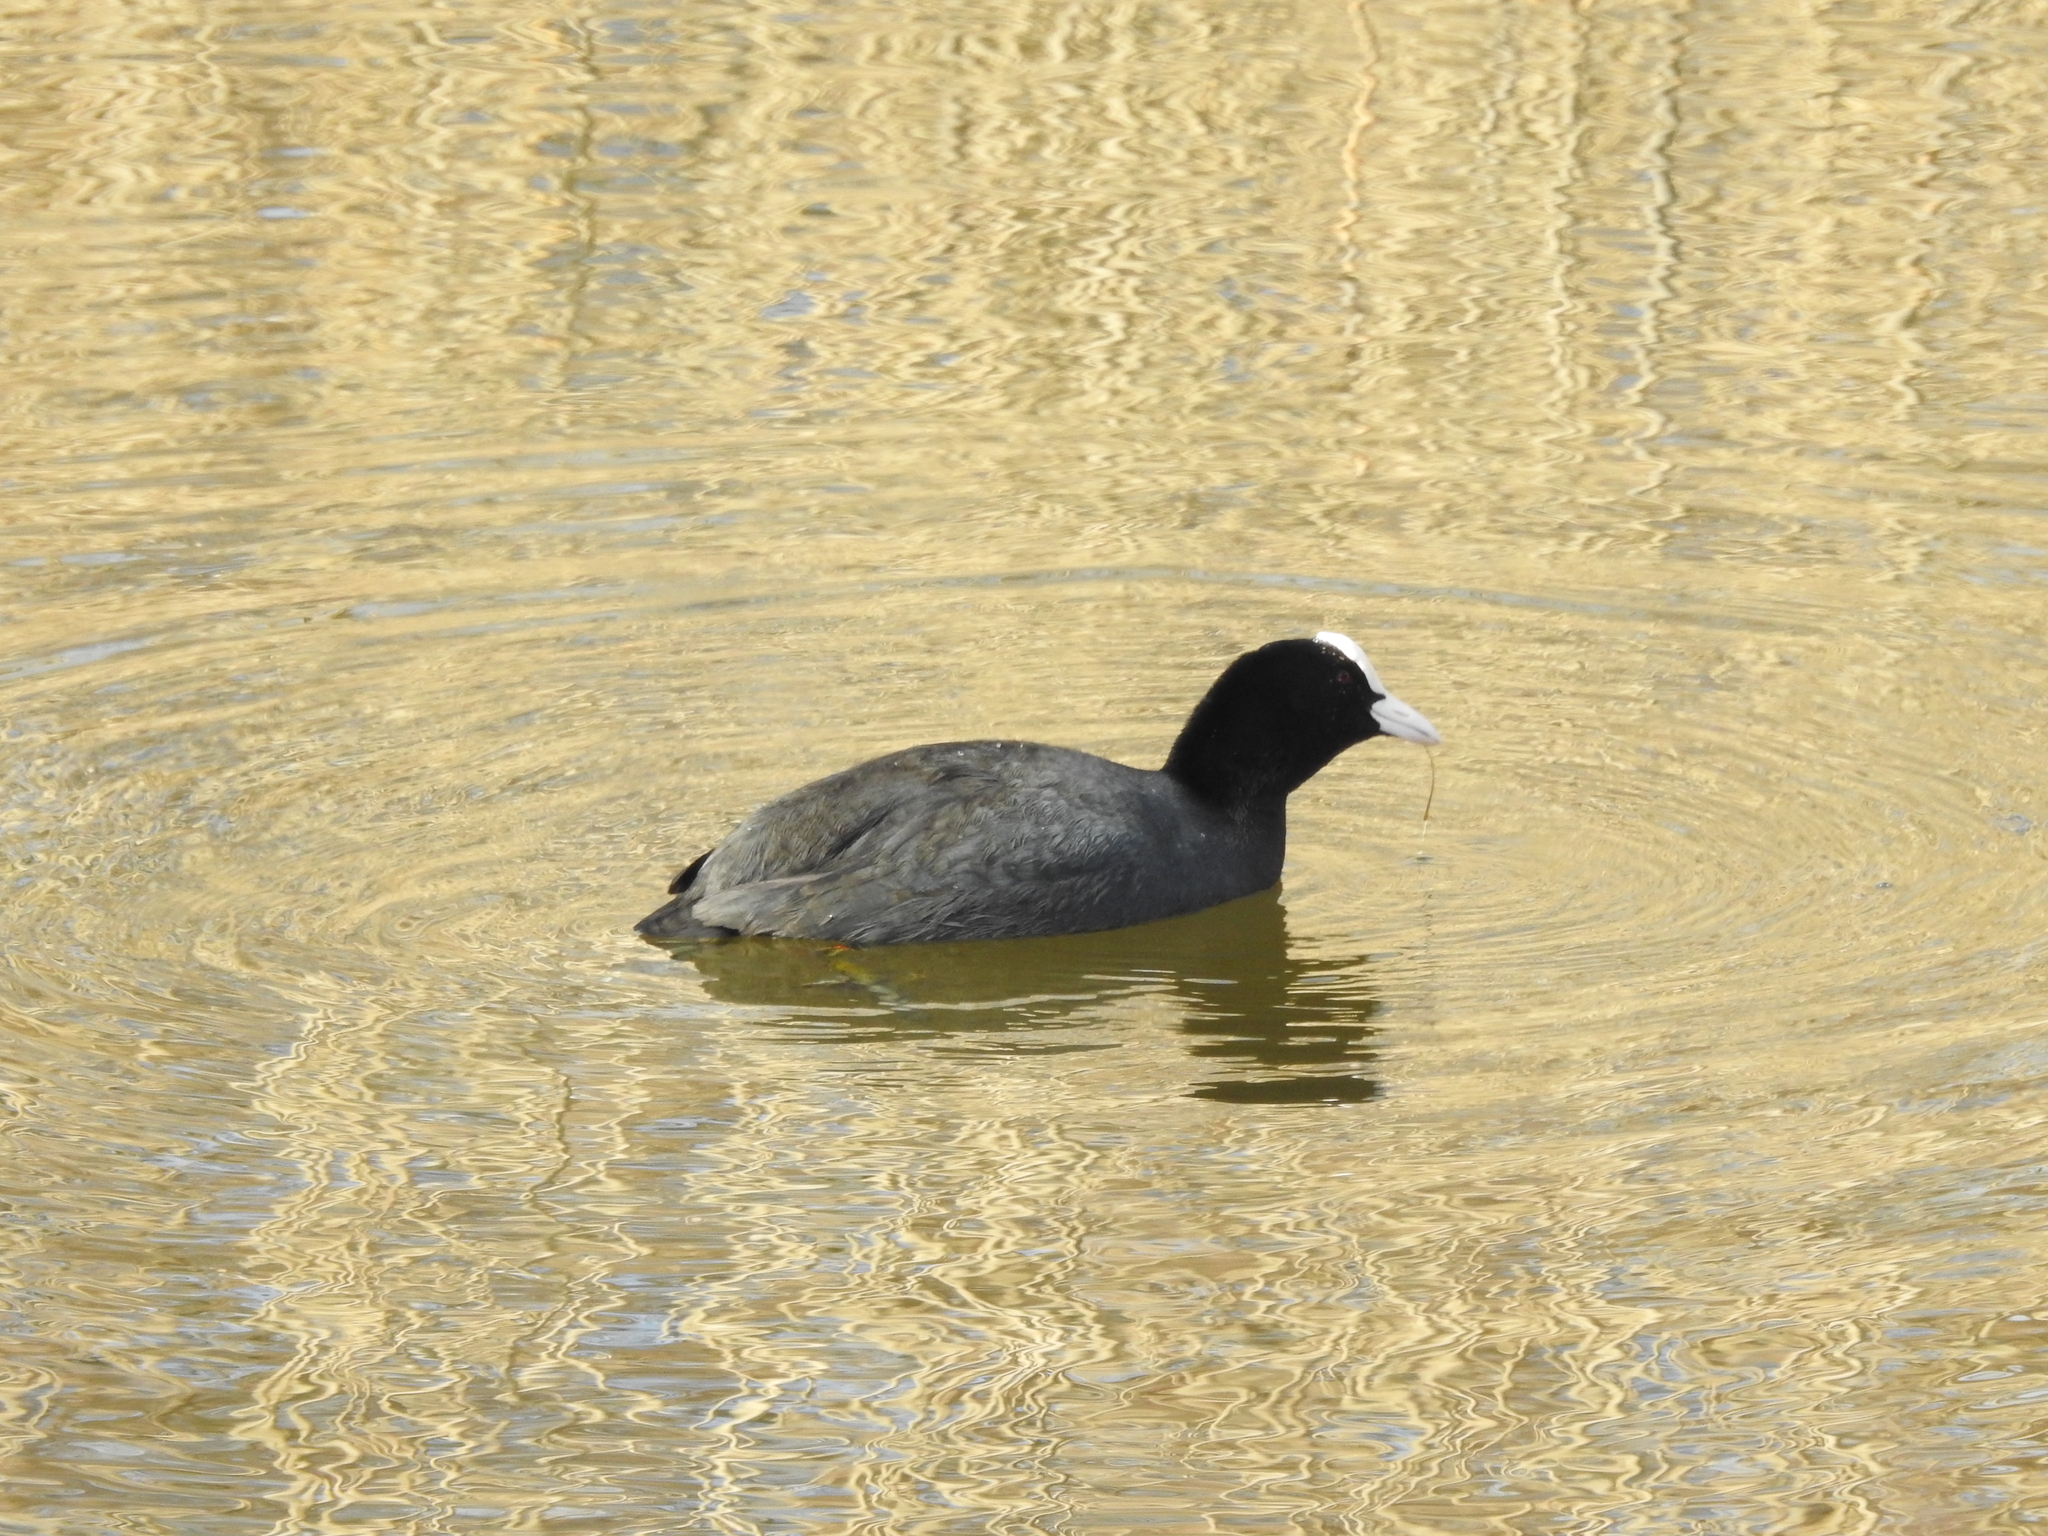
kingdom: Animalia
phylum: Chordata
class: Aves
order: Gruiformes
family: Rallidae
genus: Fulica
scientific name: Fulica atra
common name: Eurasian coot
